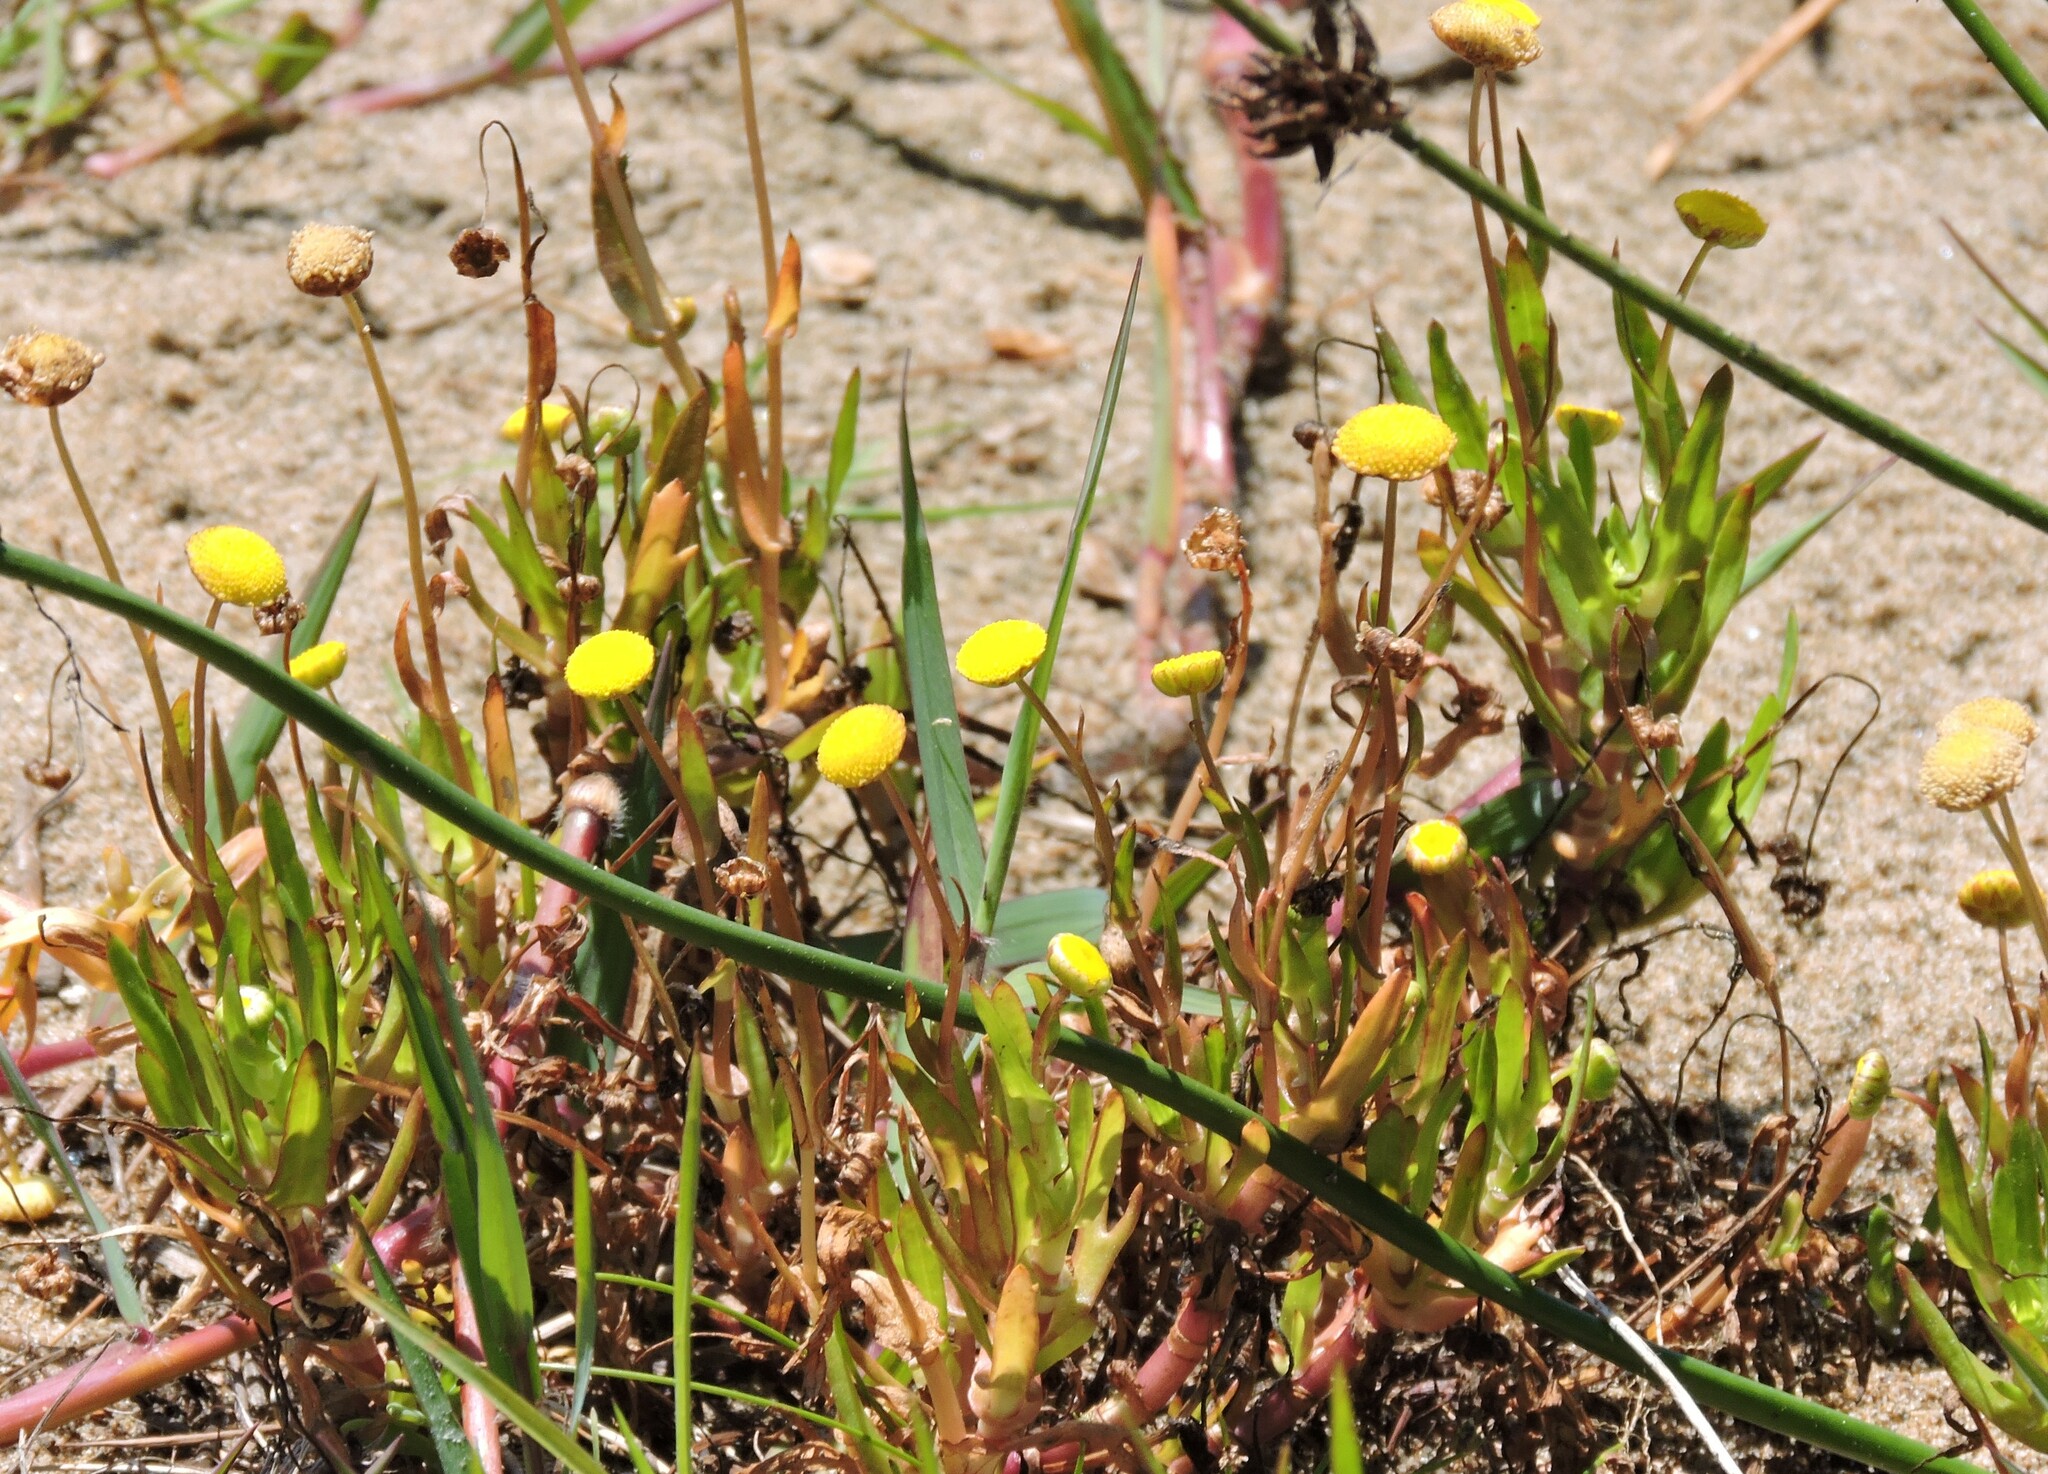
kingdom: Plantae
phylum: Tracheophyta
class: Magnoliopsida
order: Asterales
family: Asteraceae
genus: Cotula
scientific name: Cotula coronopifolia
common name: Buttonweed
